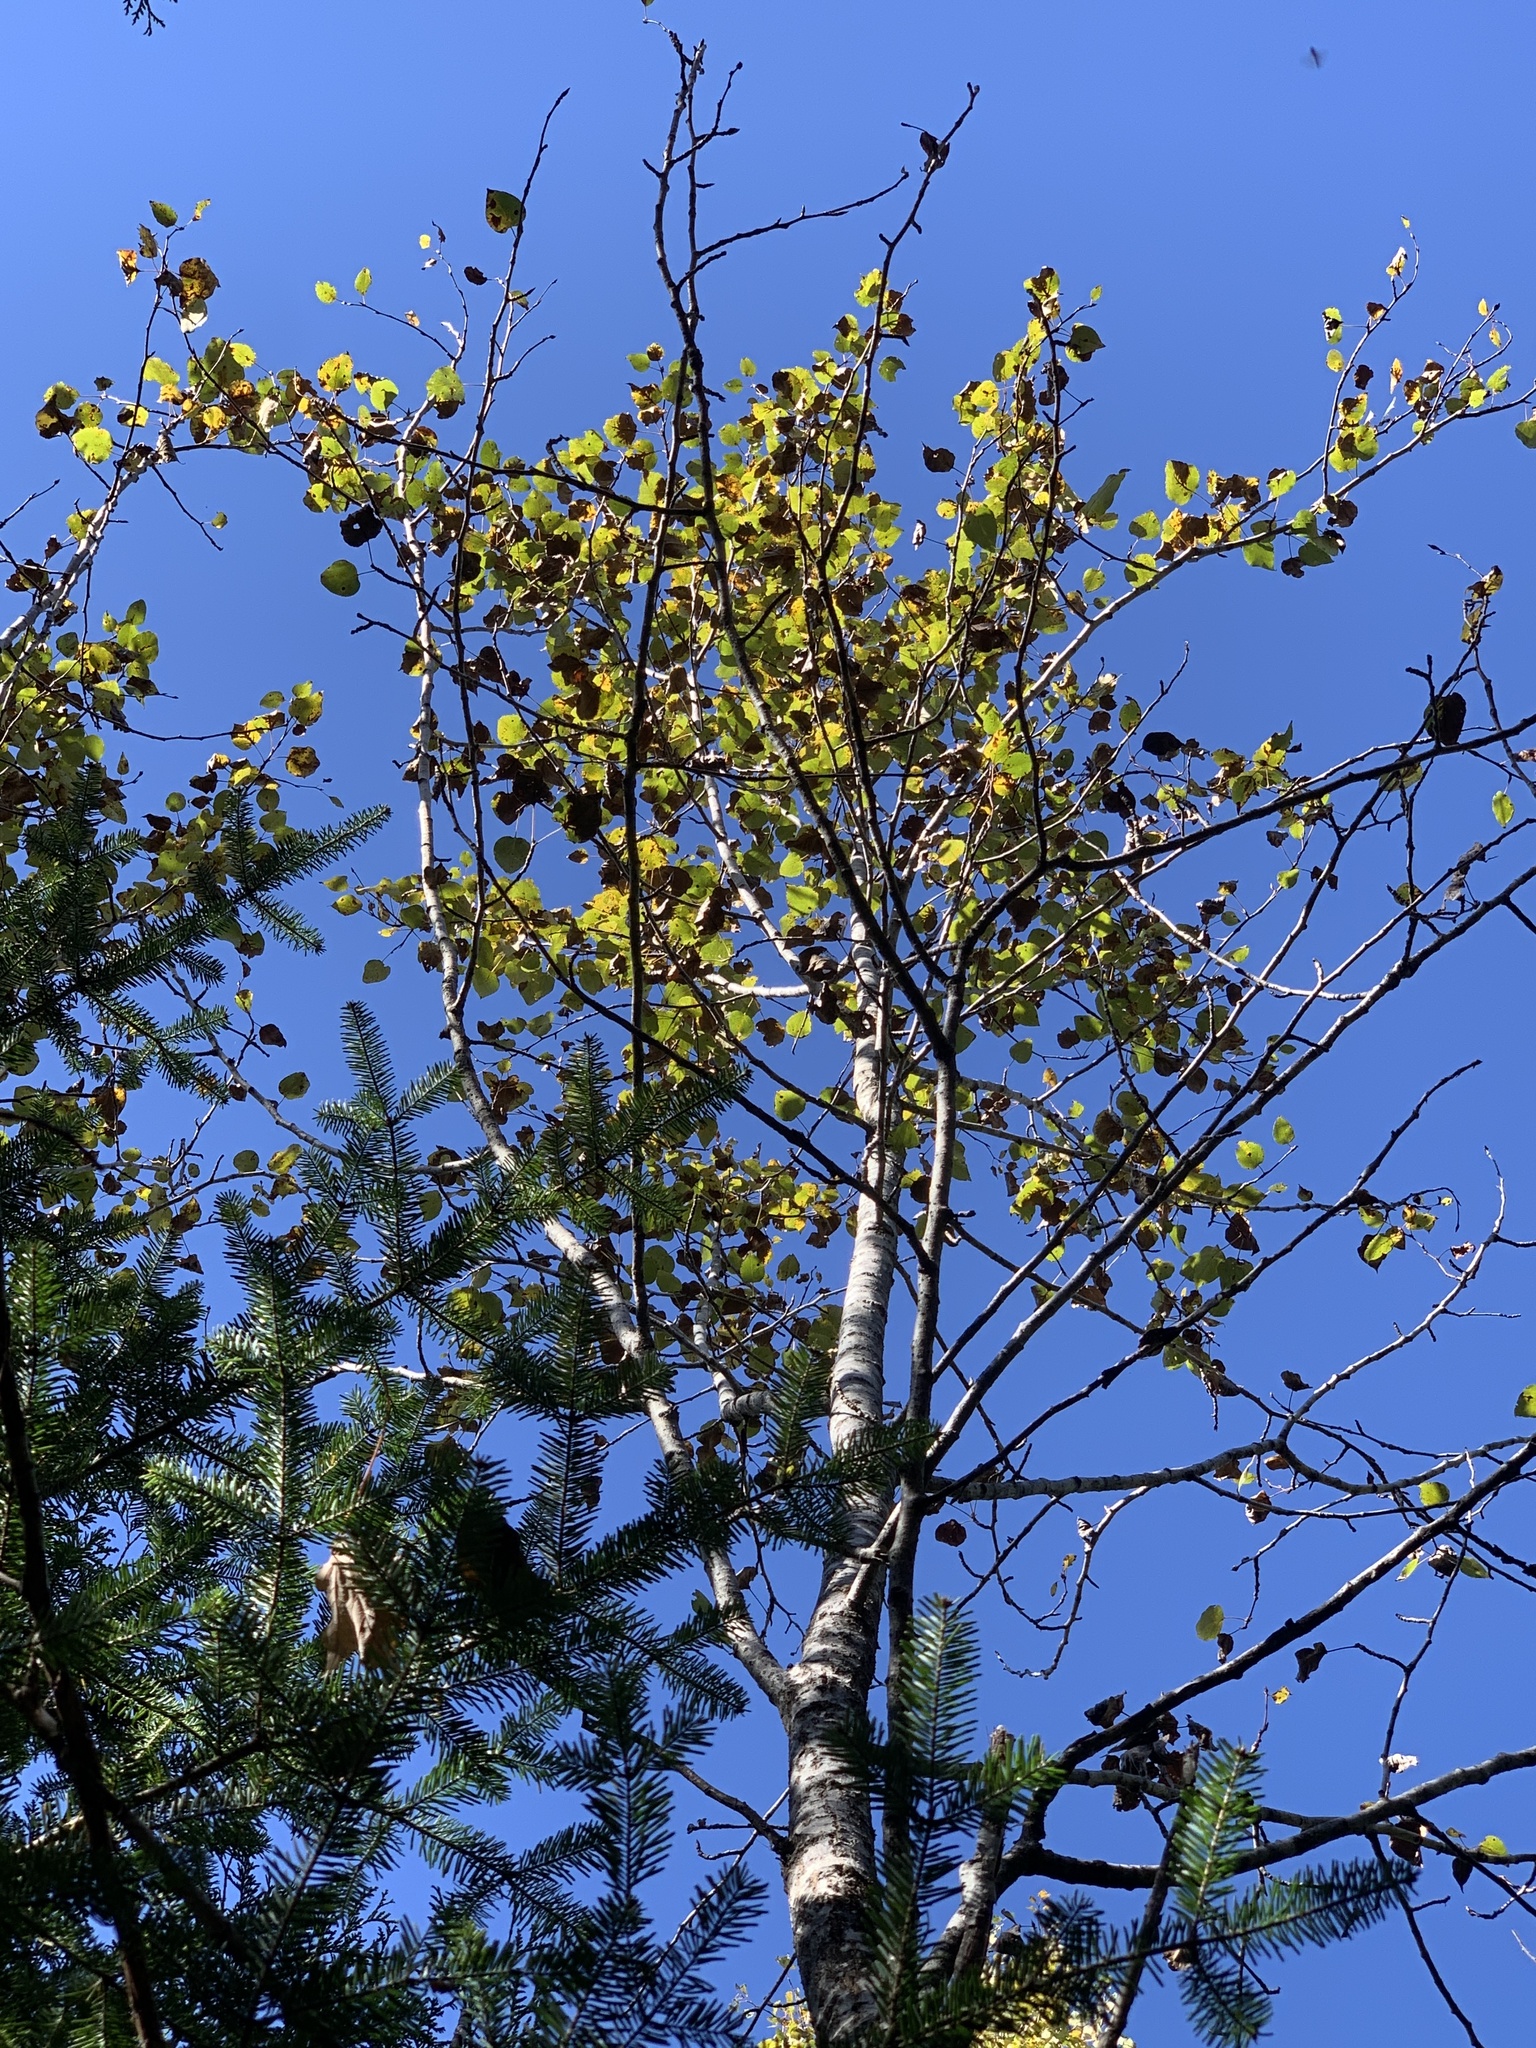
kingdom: Plantae
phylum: Tracheophyta
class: Magnoliopsida
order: Malpighiales
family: Salicaceae
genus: Populus
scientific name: Populus tremuloides
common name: Quaking aspen
